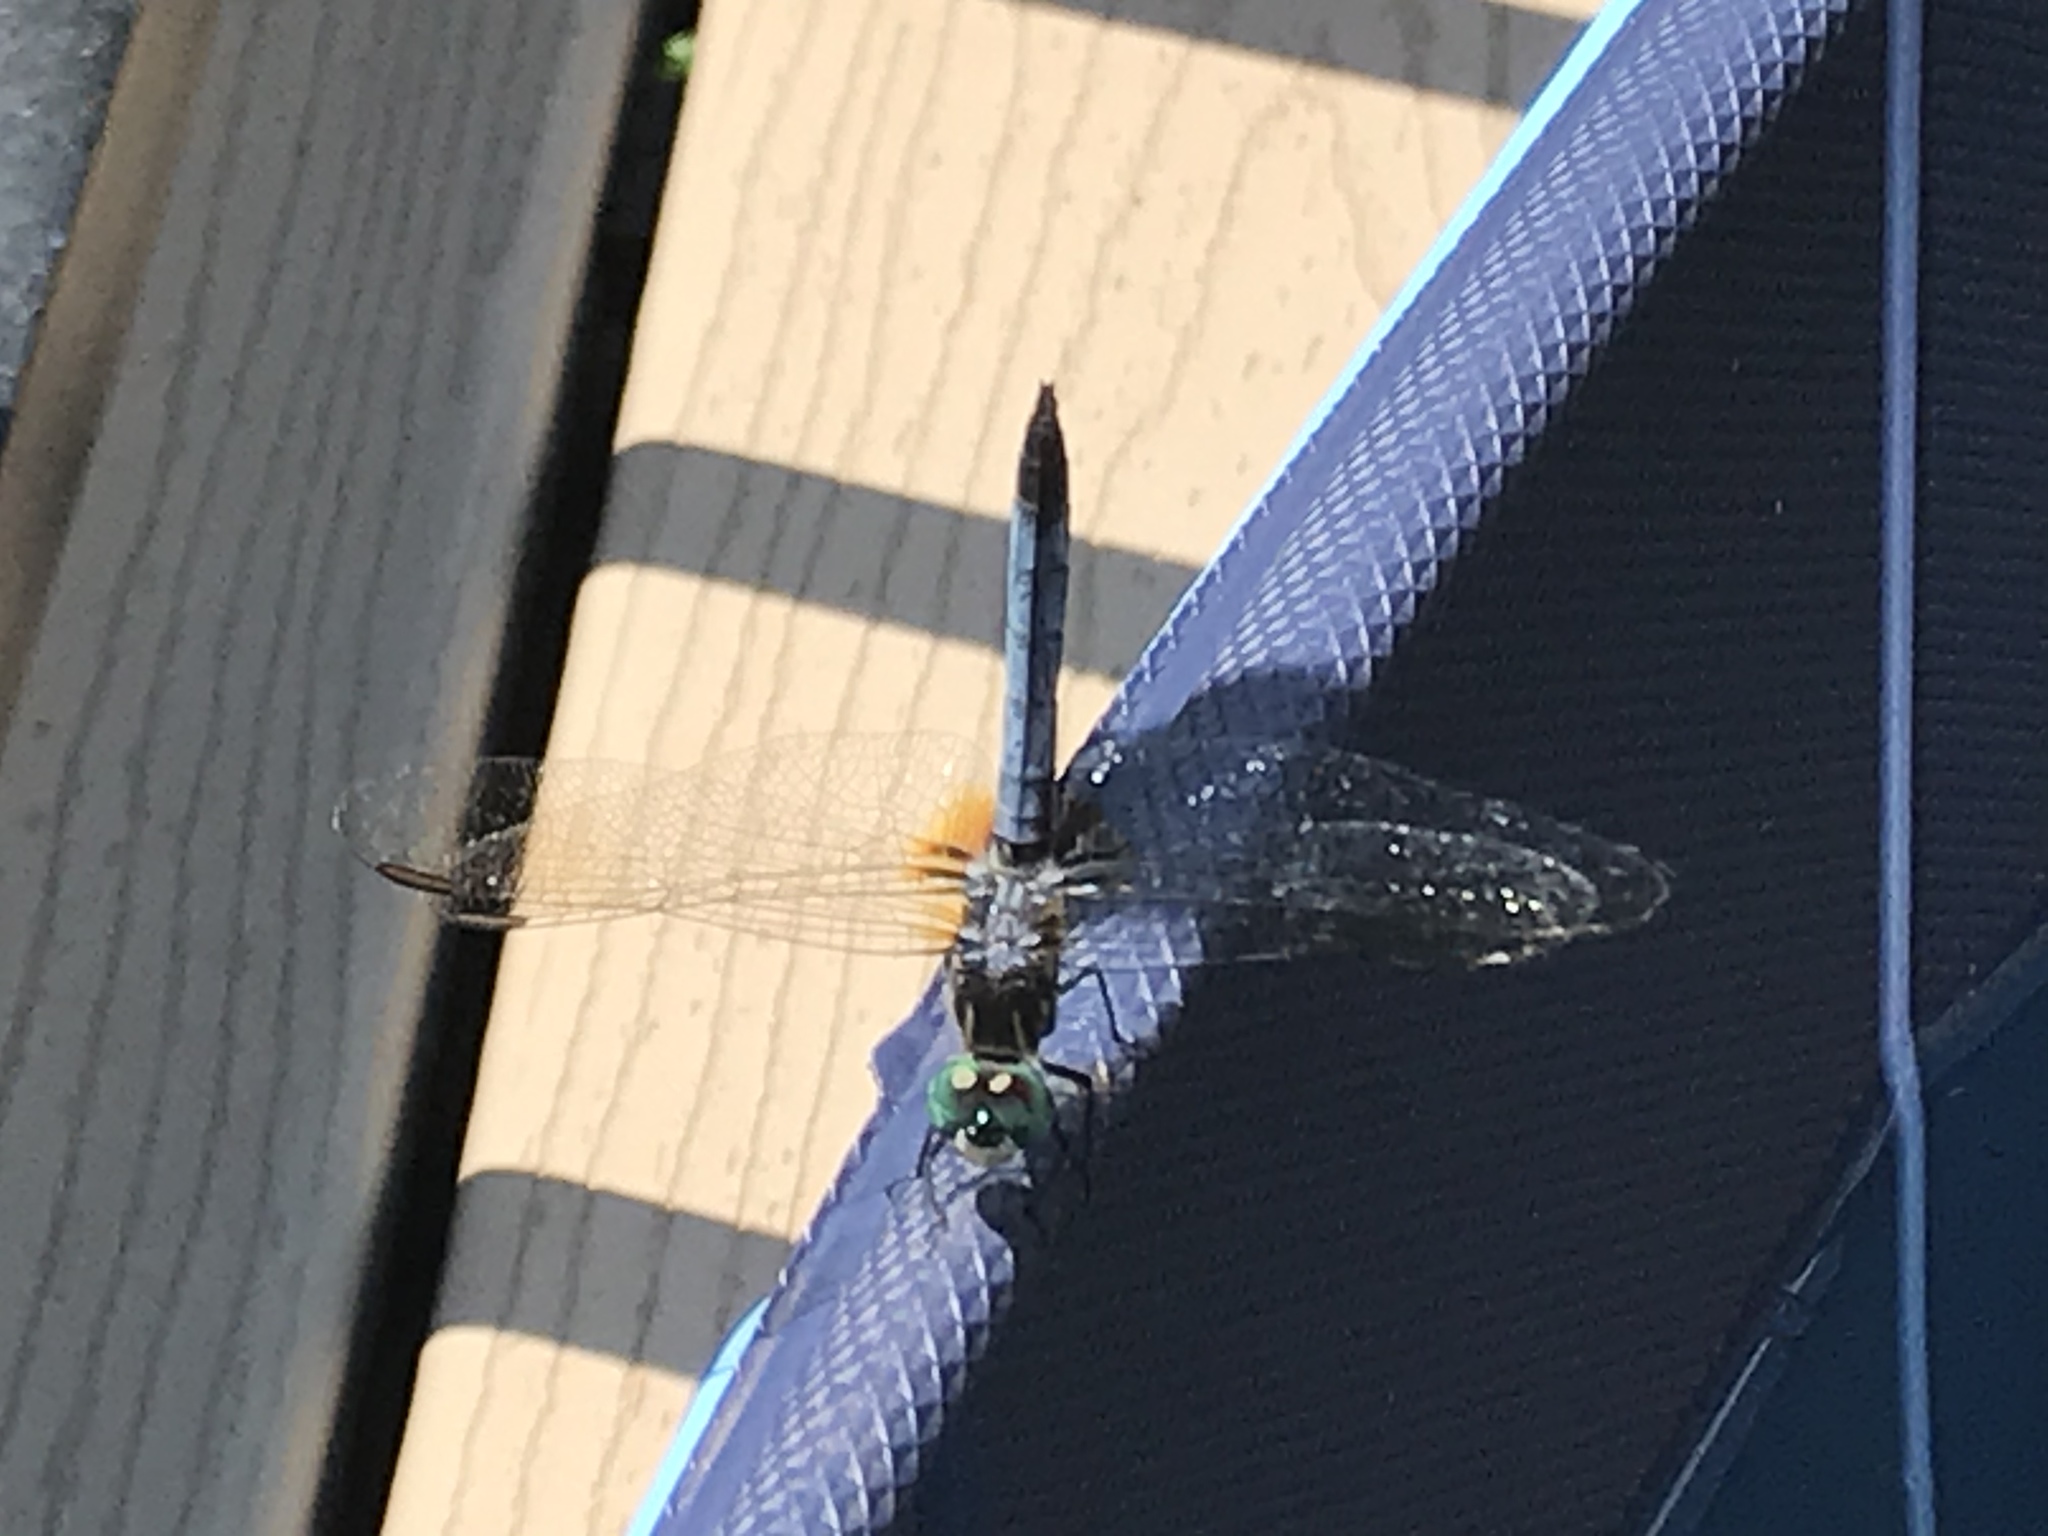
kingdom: Animalia
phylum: Arthropoda
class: Insecta
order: Odonata
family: Libellulidae
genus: Pachydiplax
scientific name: Pachydiplax longipennis
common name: Blue dasher
